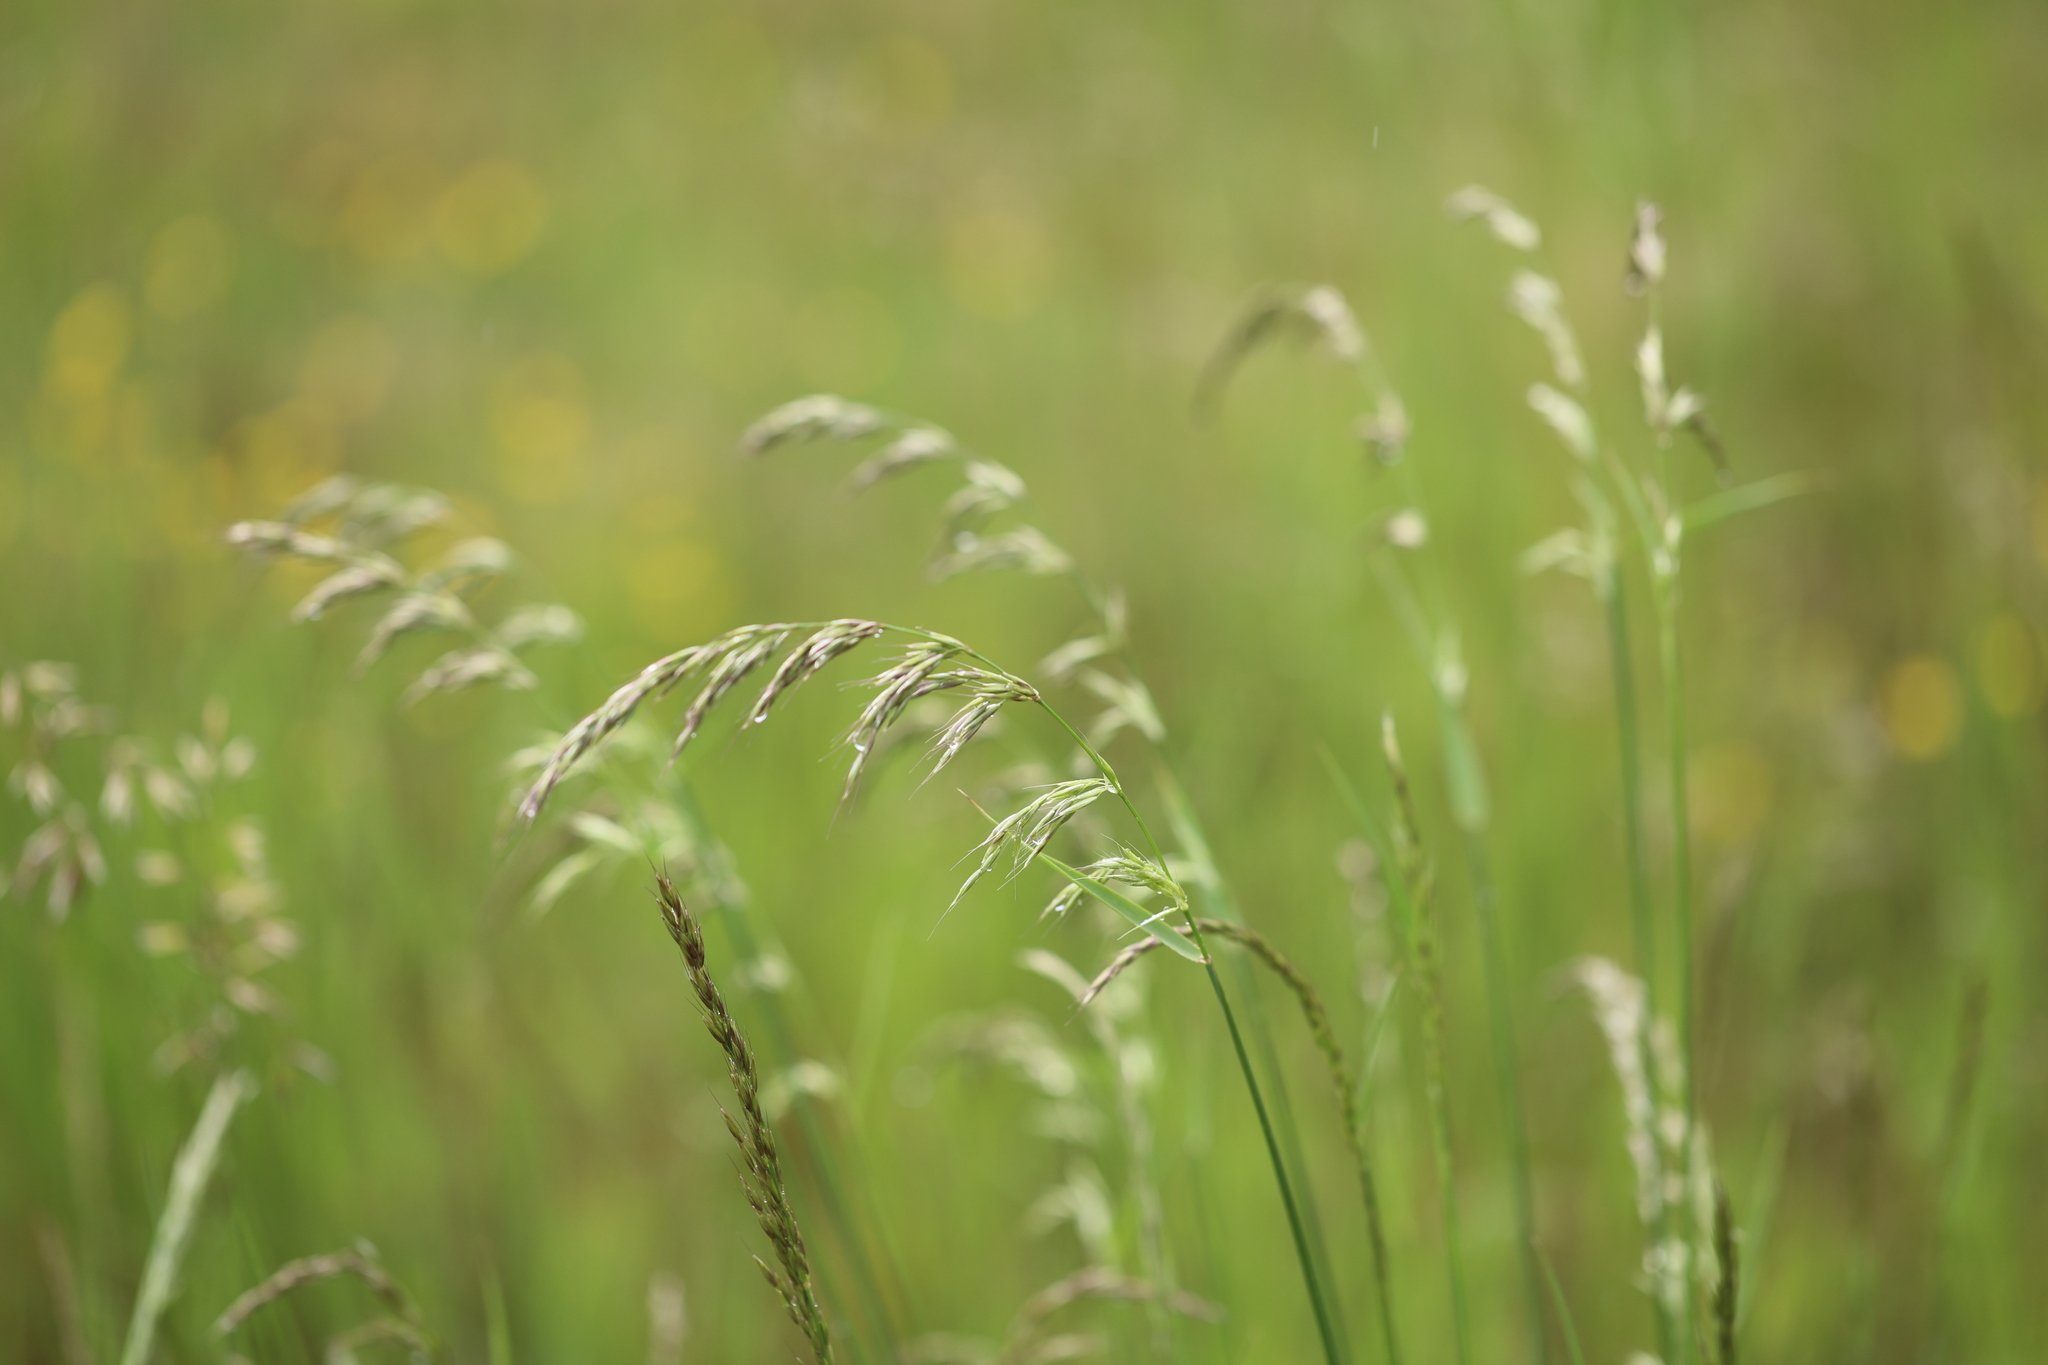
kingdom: Plantae
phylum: Tracheophyta
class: Liliopsida
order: Poales
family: Poaceae
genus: Arrhenatherum
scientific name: Arrhenatherum elatius
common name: Tall oatgrass
